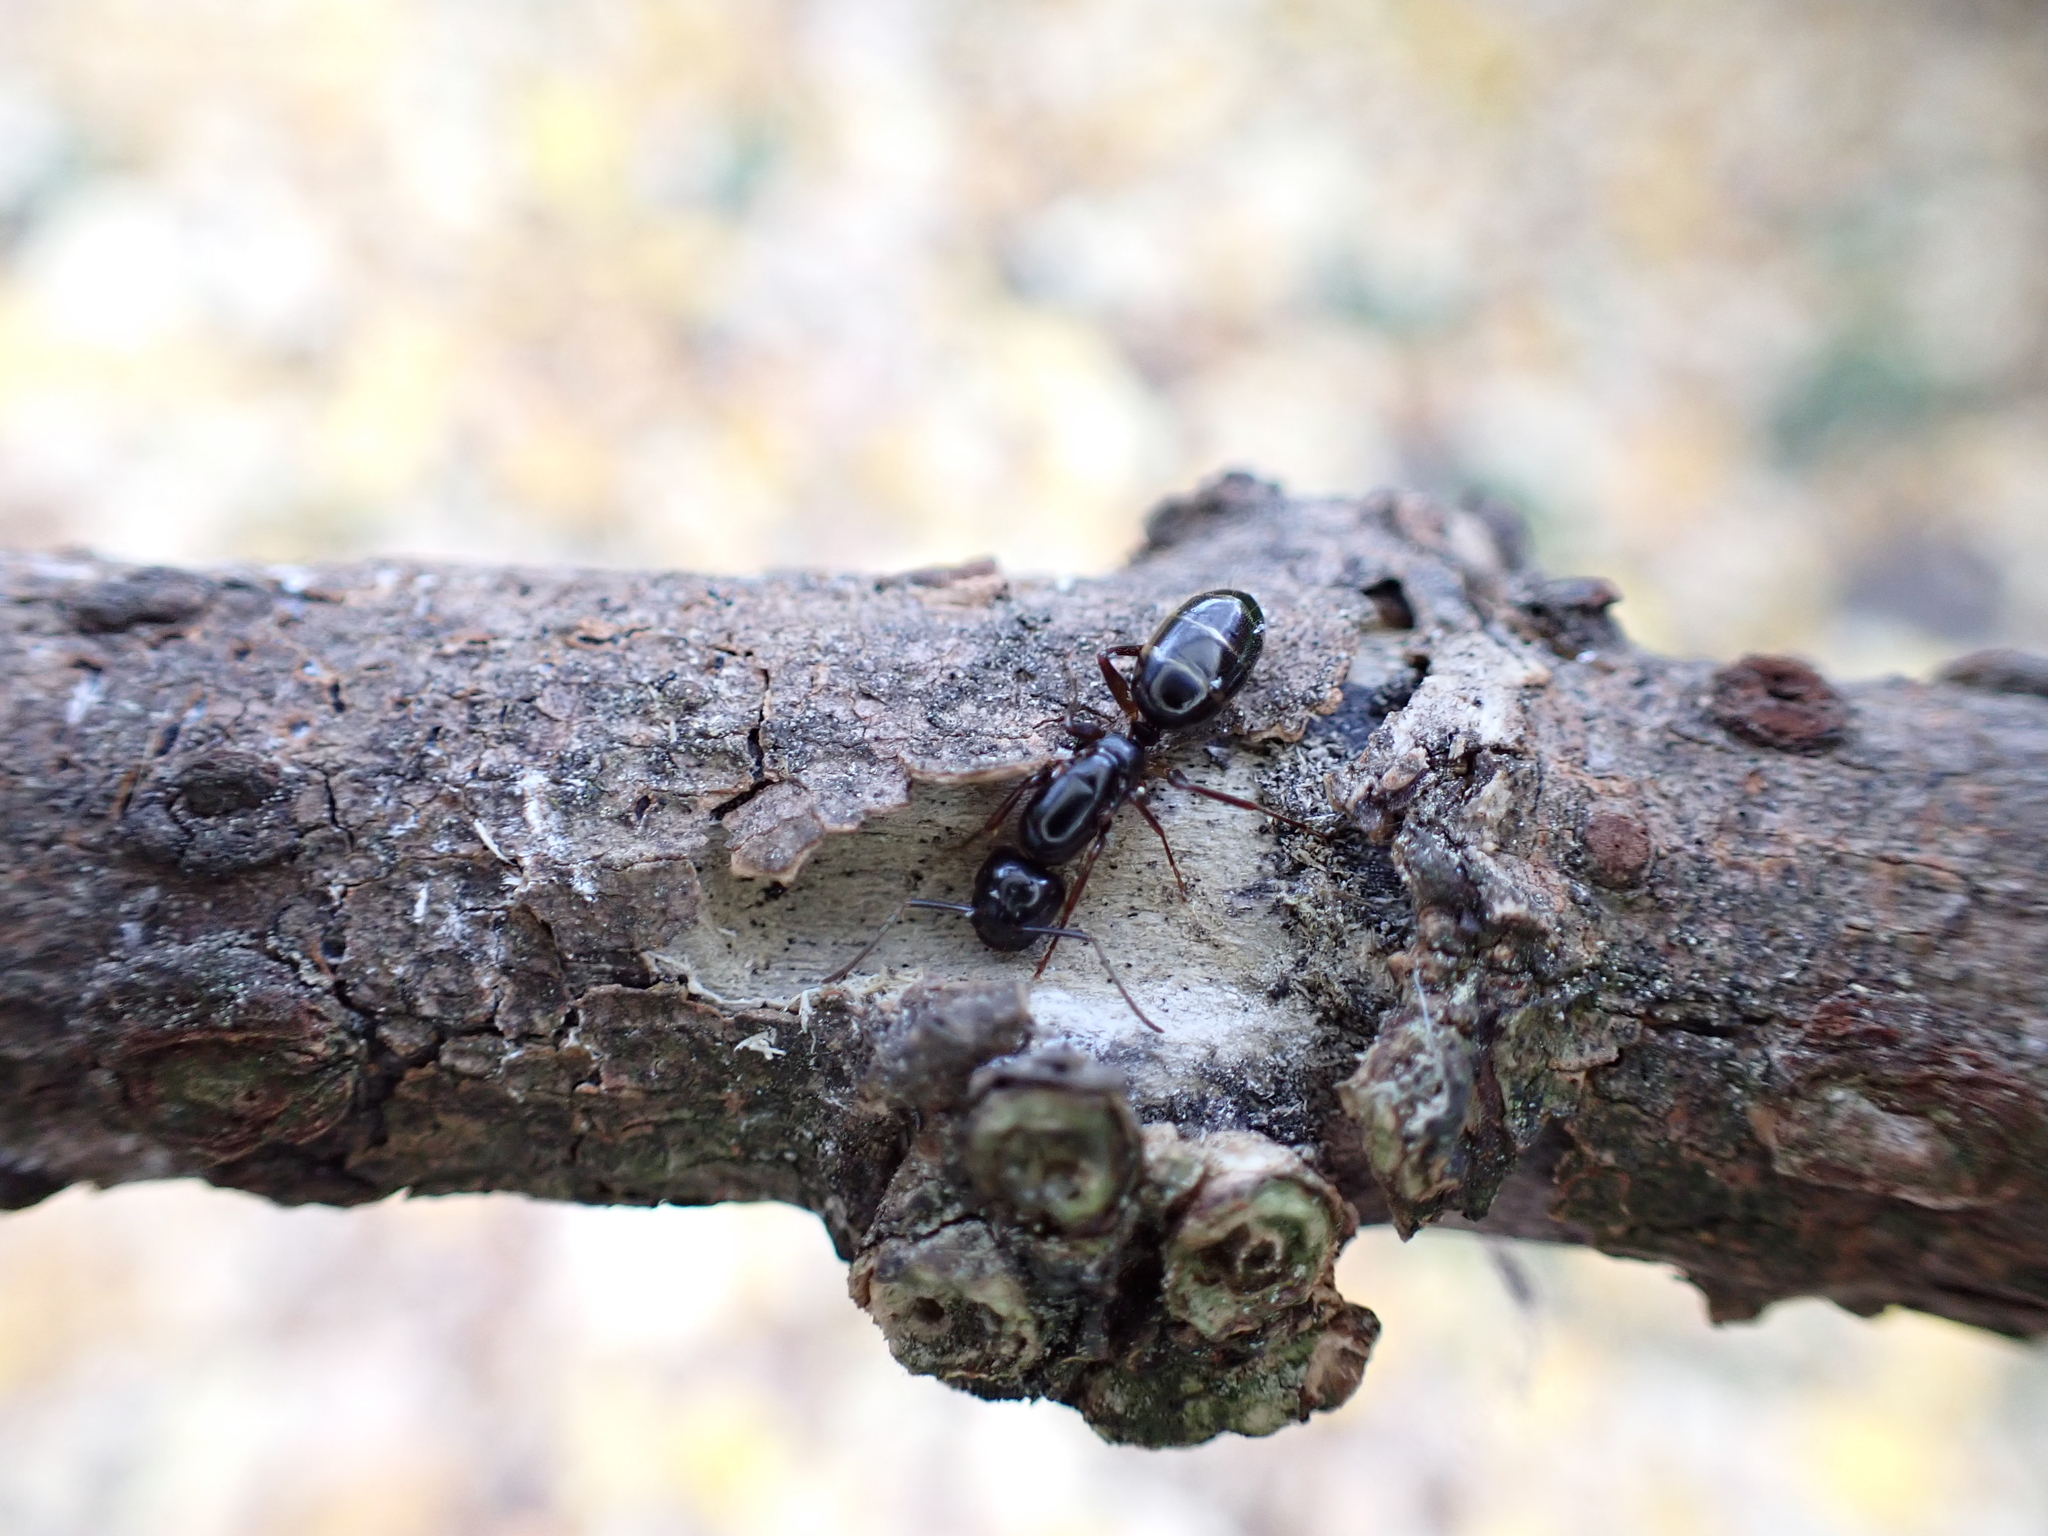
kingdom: Animalia
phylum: Arthropoda
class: Insecta
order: Hymenoptera
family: Formicidae
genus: Camponotus
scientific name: Camponotus fallax
